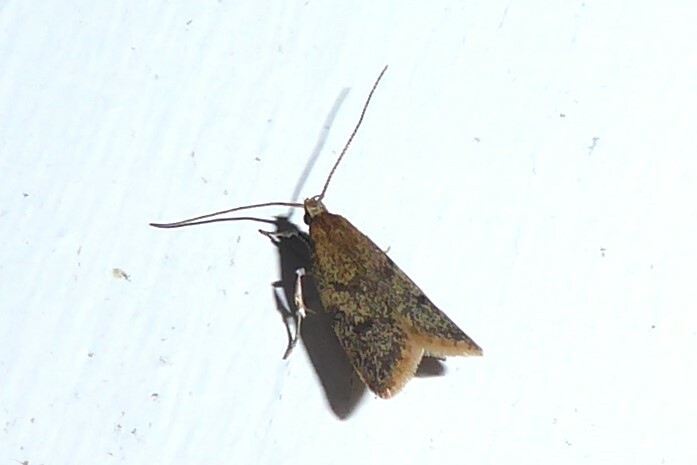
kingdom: Animalia
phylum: Arthropoda
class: Insecta
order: Lepidoptera
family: Oecophoridae
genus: Gymnobathra
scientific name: Gymnobathra tholodella
